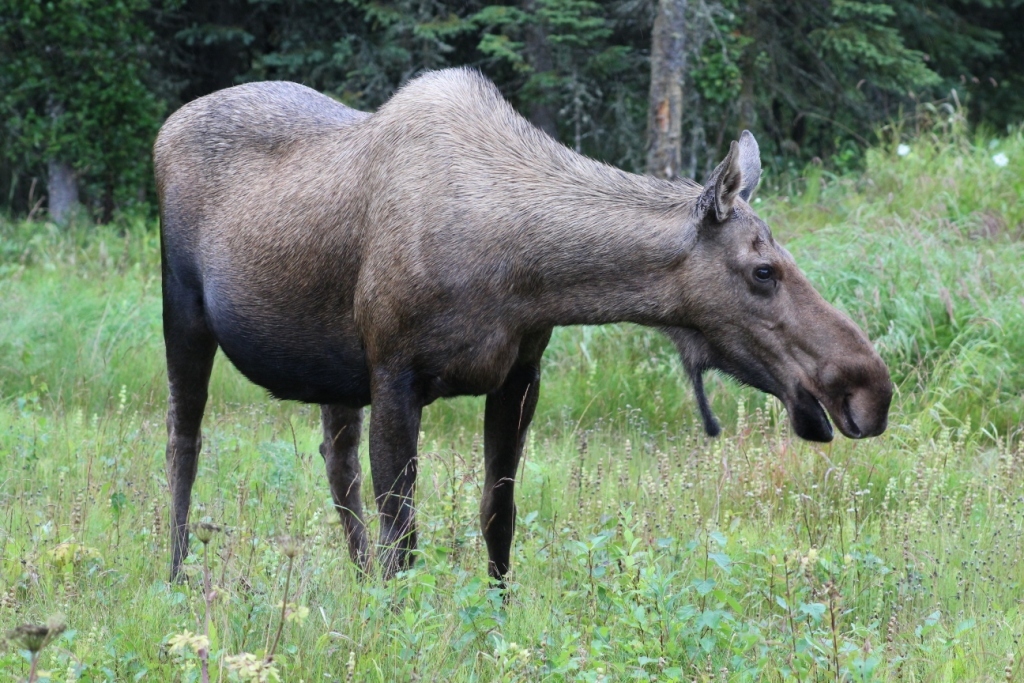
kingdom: Animalia
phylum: Chordata
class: Mammalia
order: Artiodactyla
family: Cervidae
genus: Alces
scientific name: Alces alces
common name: Moose
